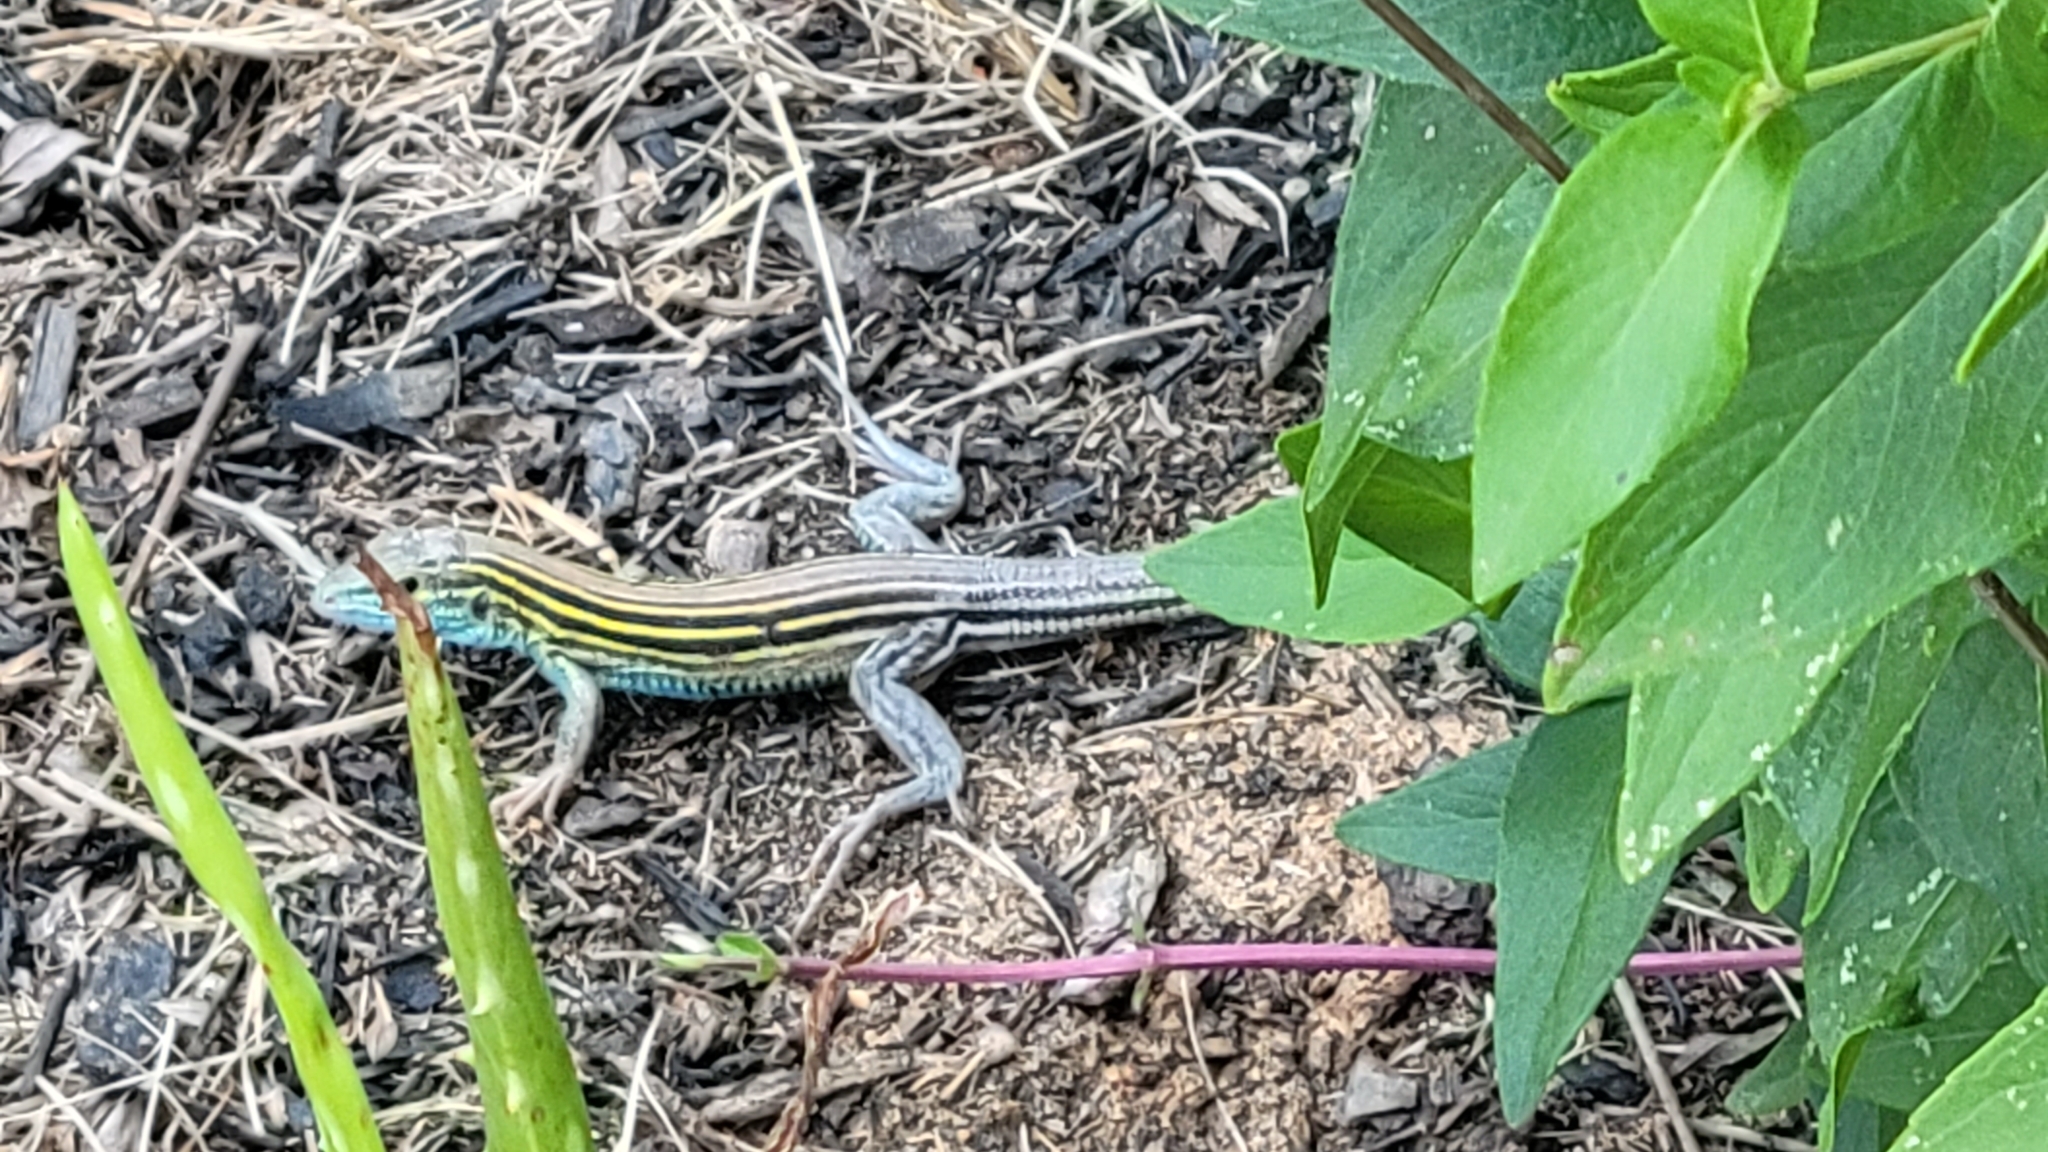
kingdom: Animalia
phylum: Chordata
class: Squamata
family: Teiidae
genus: Aspidoscelis
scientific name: Aspidoscelis sexlineatus
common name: Six-lined racerunner
